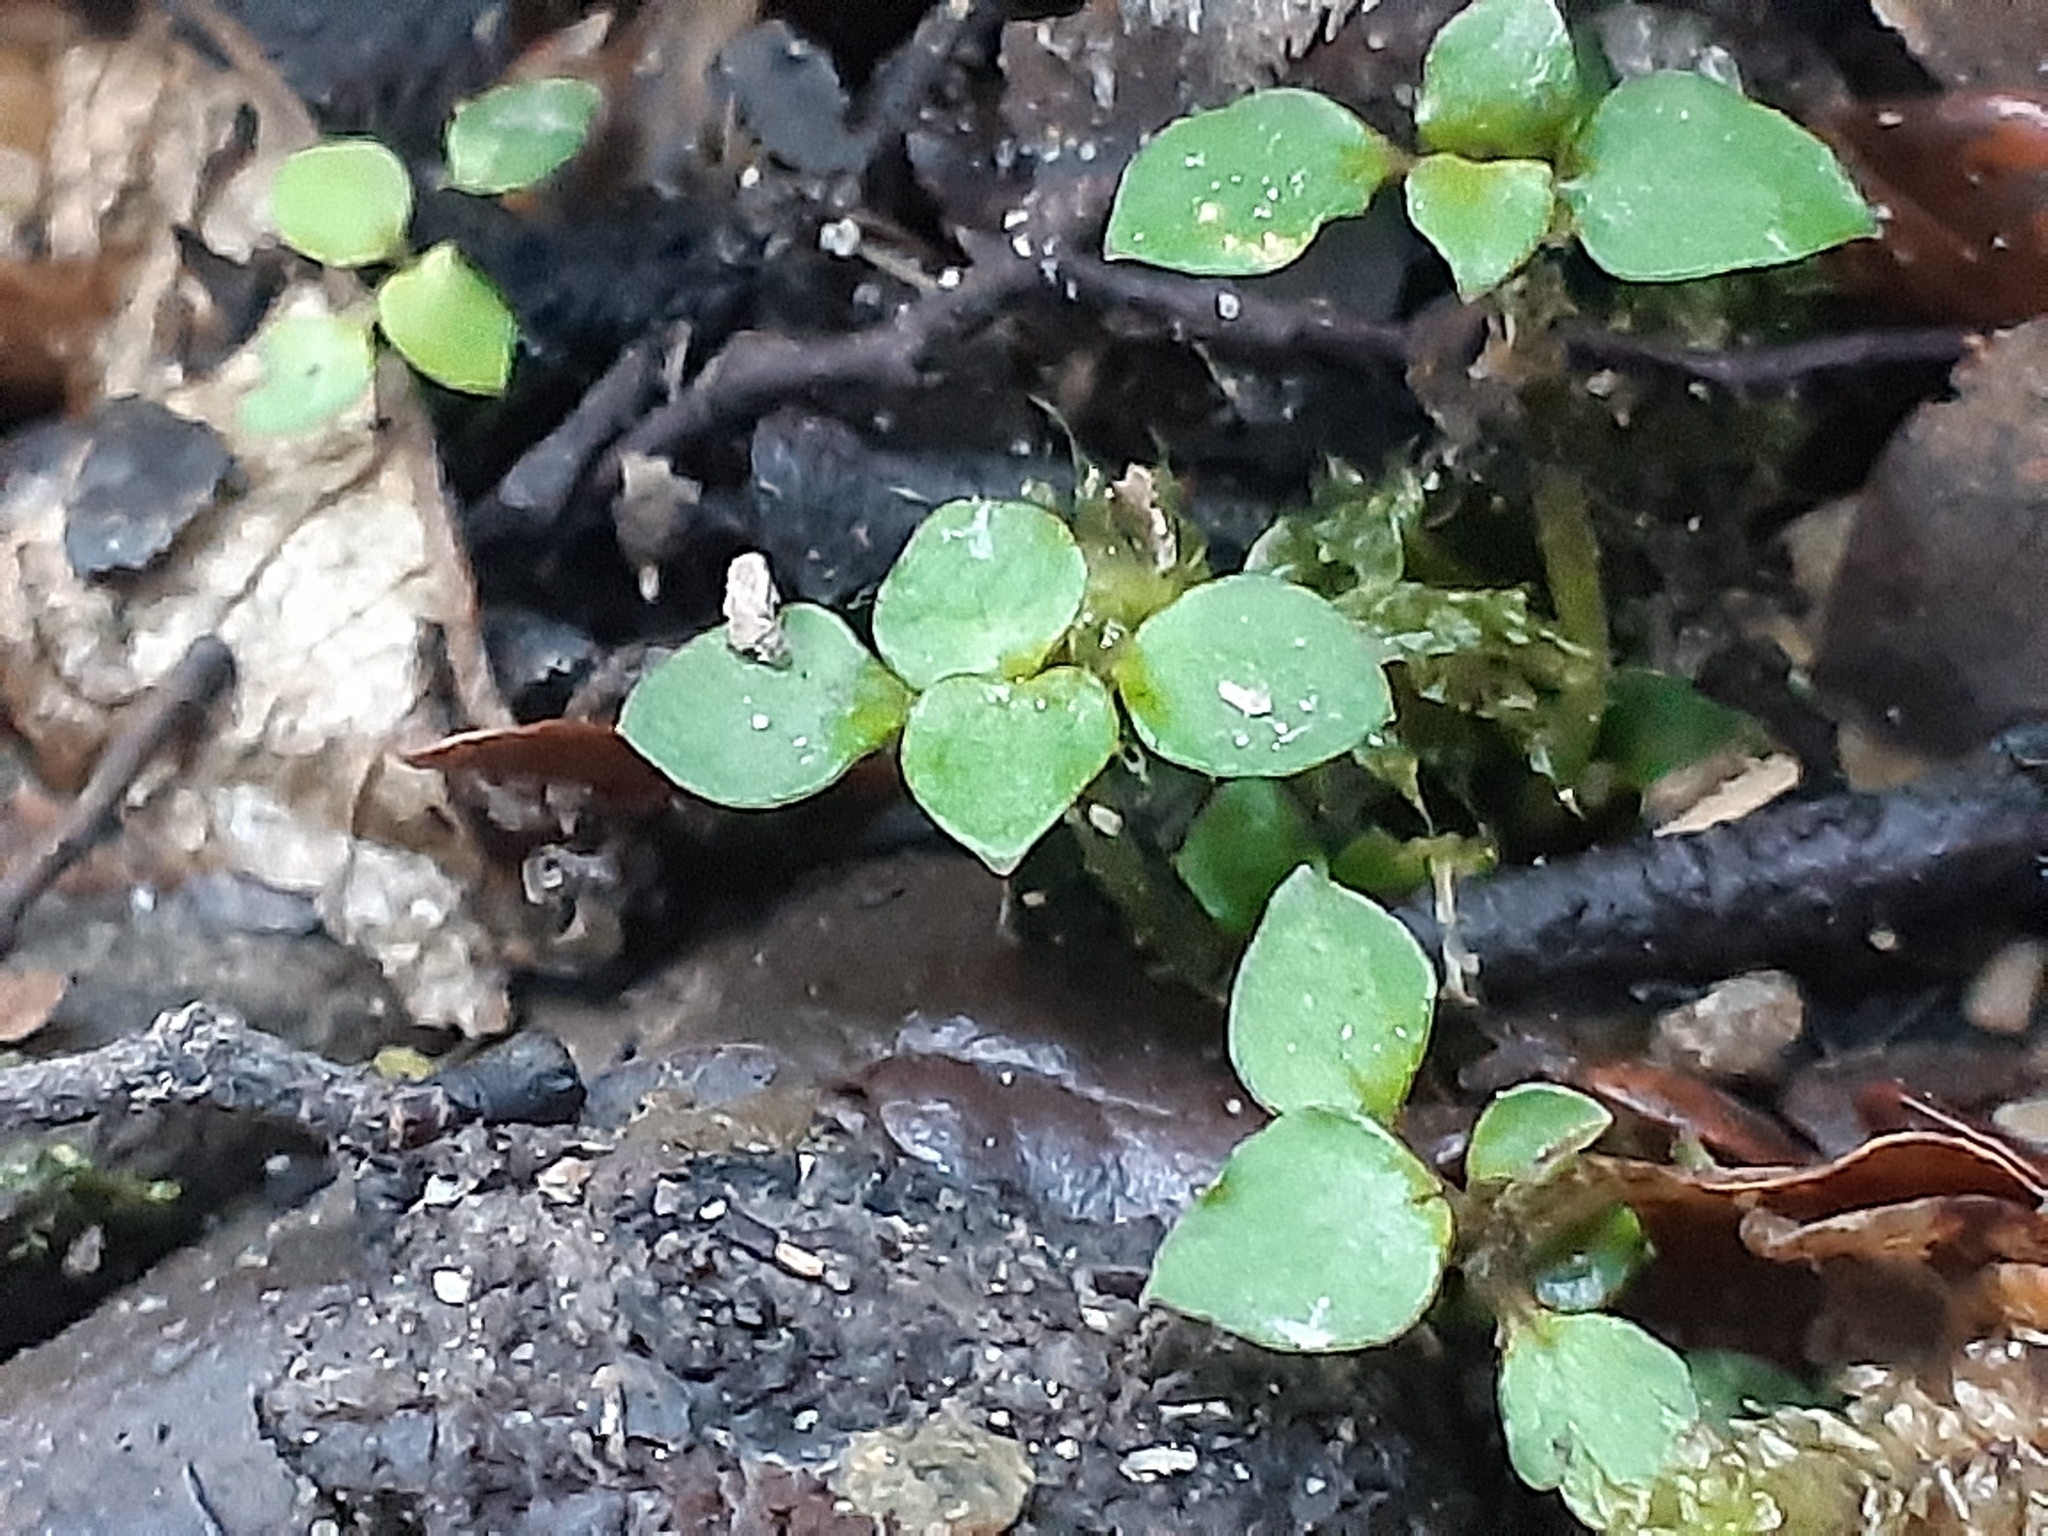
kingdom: Plantae
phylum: Tracheophyta
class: Magnoliopsida
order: Gentianales
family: Rubiaceae
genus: Nertera
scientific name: Nertera granadensis
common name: Beadplant
